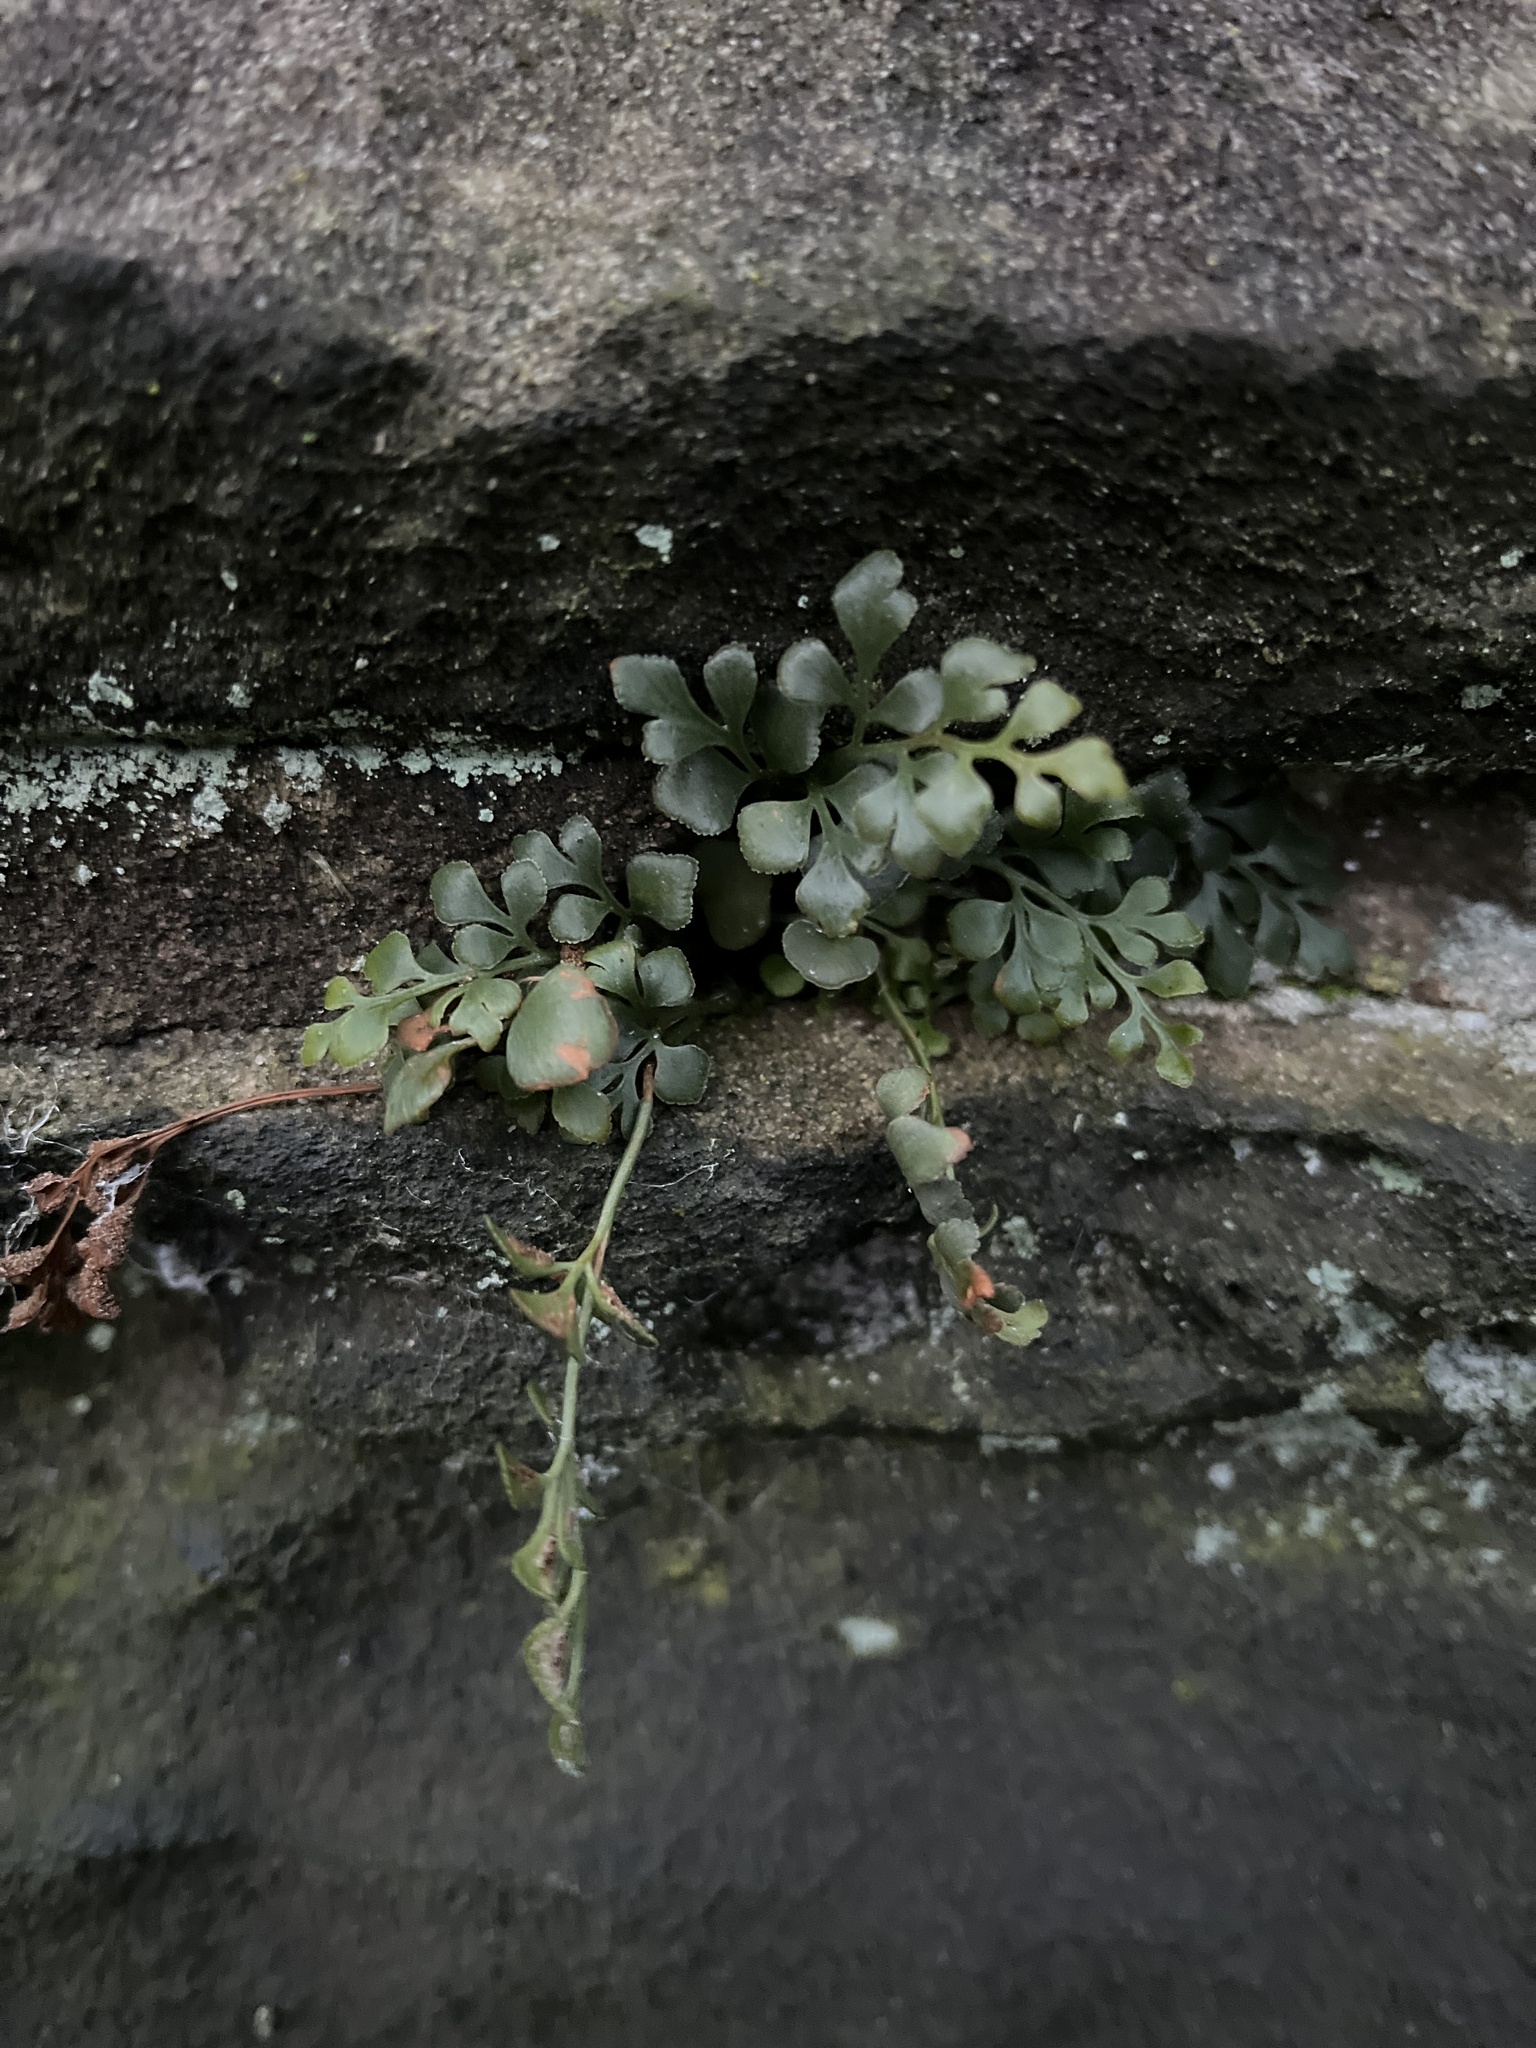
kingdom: Plantae
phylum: Tracheophyta
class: Polypodiopsida
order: Polypodiales
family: Aspleniaceae
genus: Asplenium
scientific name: Asplenium ruta-muraria
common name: Wall-rue
